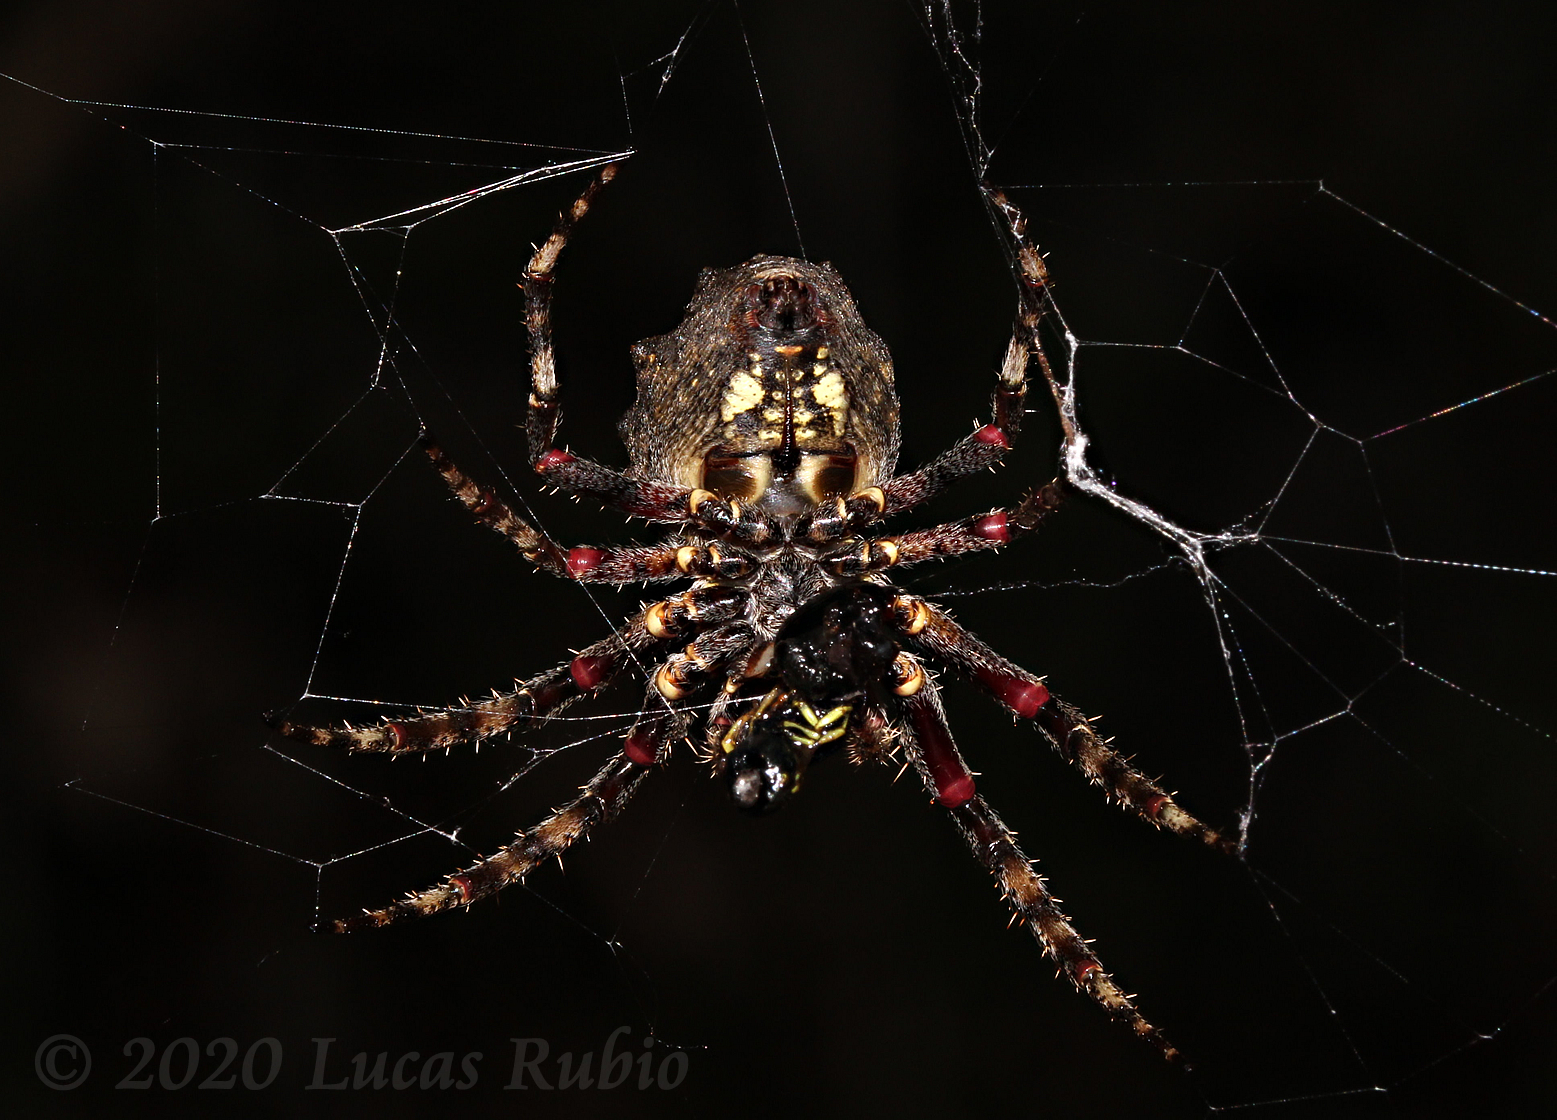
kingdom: Animalia
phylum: Arthropoda
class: Arachnida
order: Araneae
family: Araneidae
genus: Parawixia
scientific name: Parawixia audax
